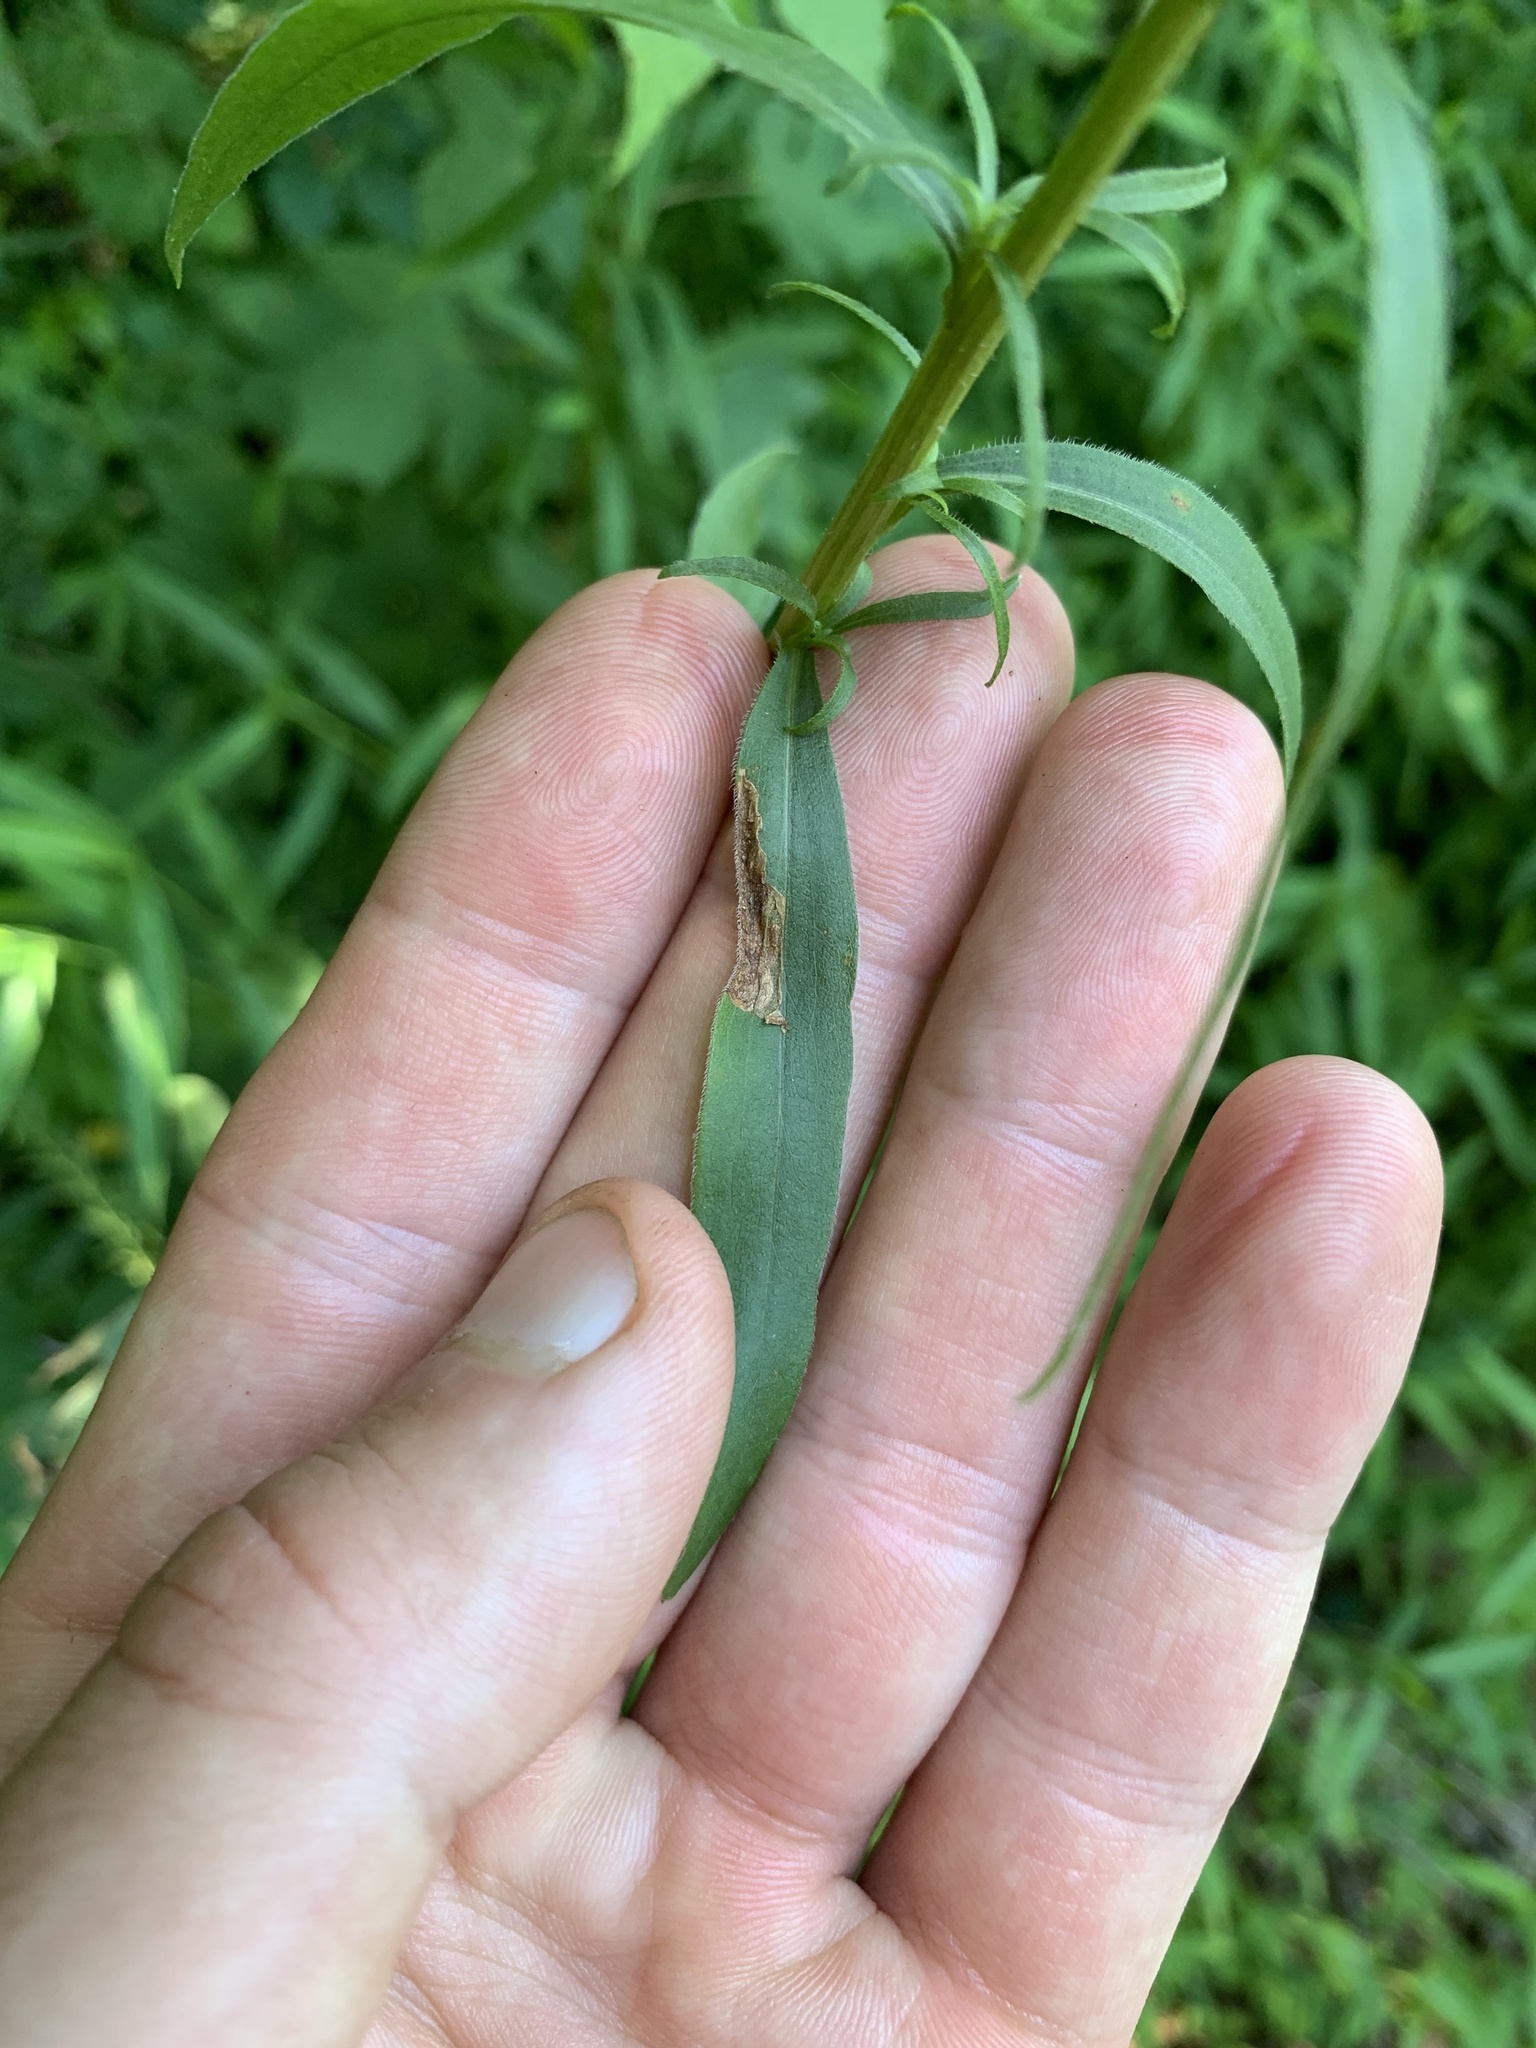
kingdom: Plantae
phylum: Tracheophyta
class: Magnoliopsida
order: Asterales
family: Asteraceae
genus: Solidago
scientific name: Solidago juncea
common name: Early goldenrod
